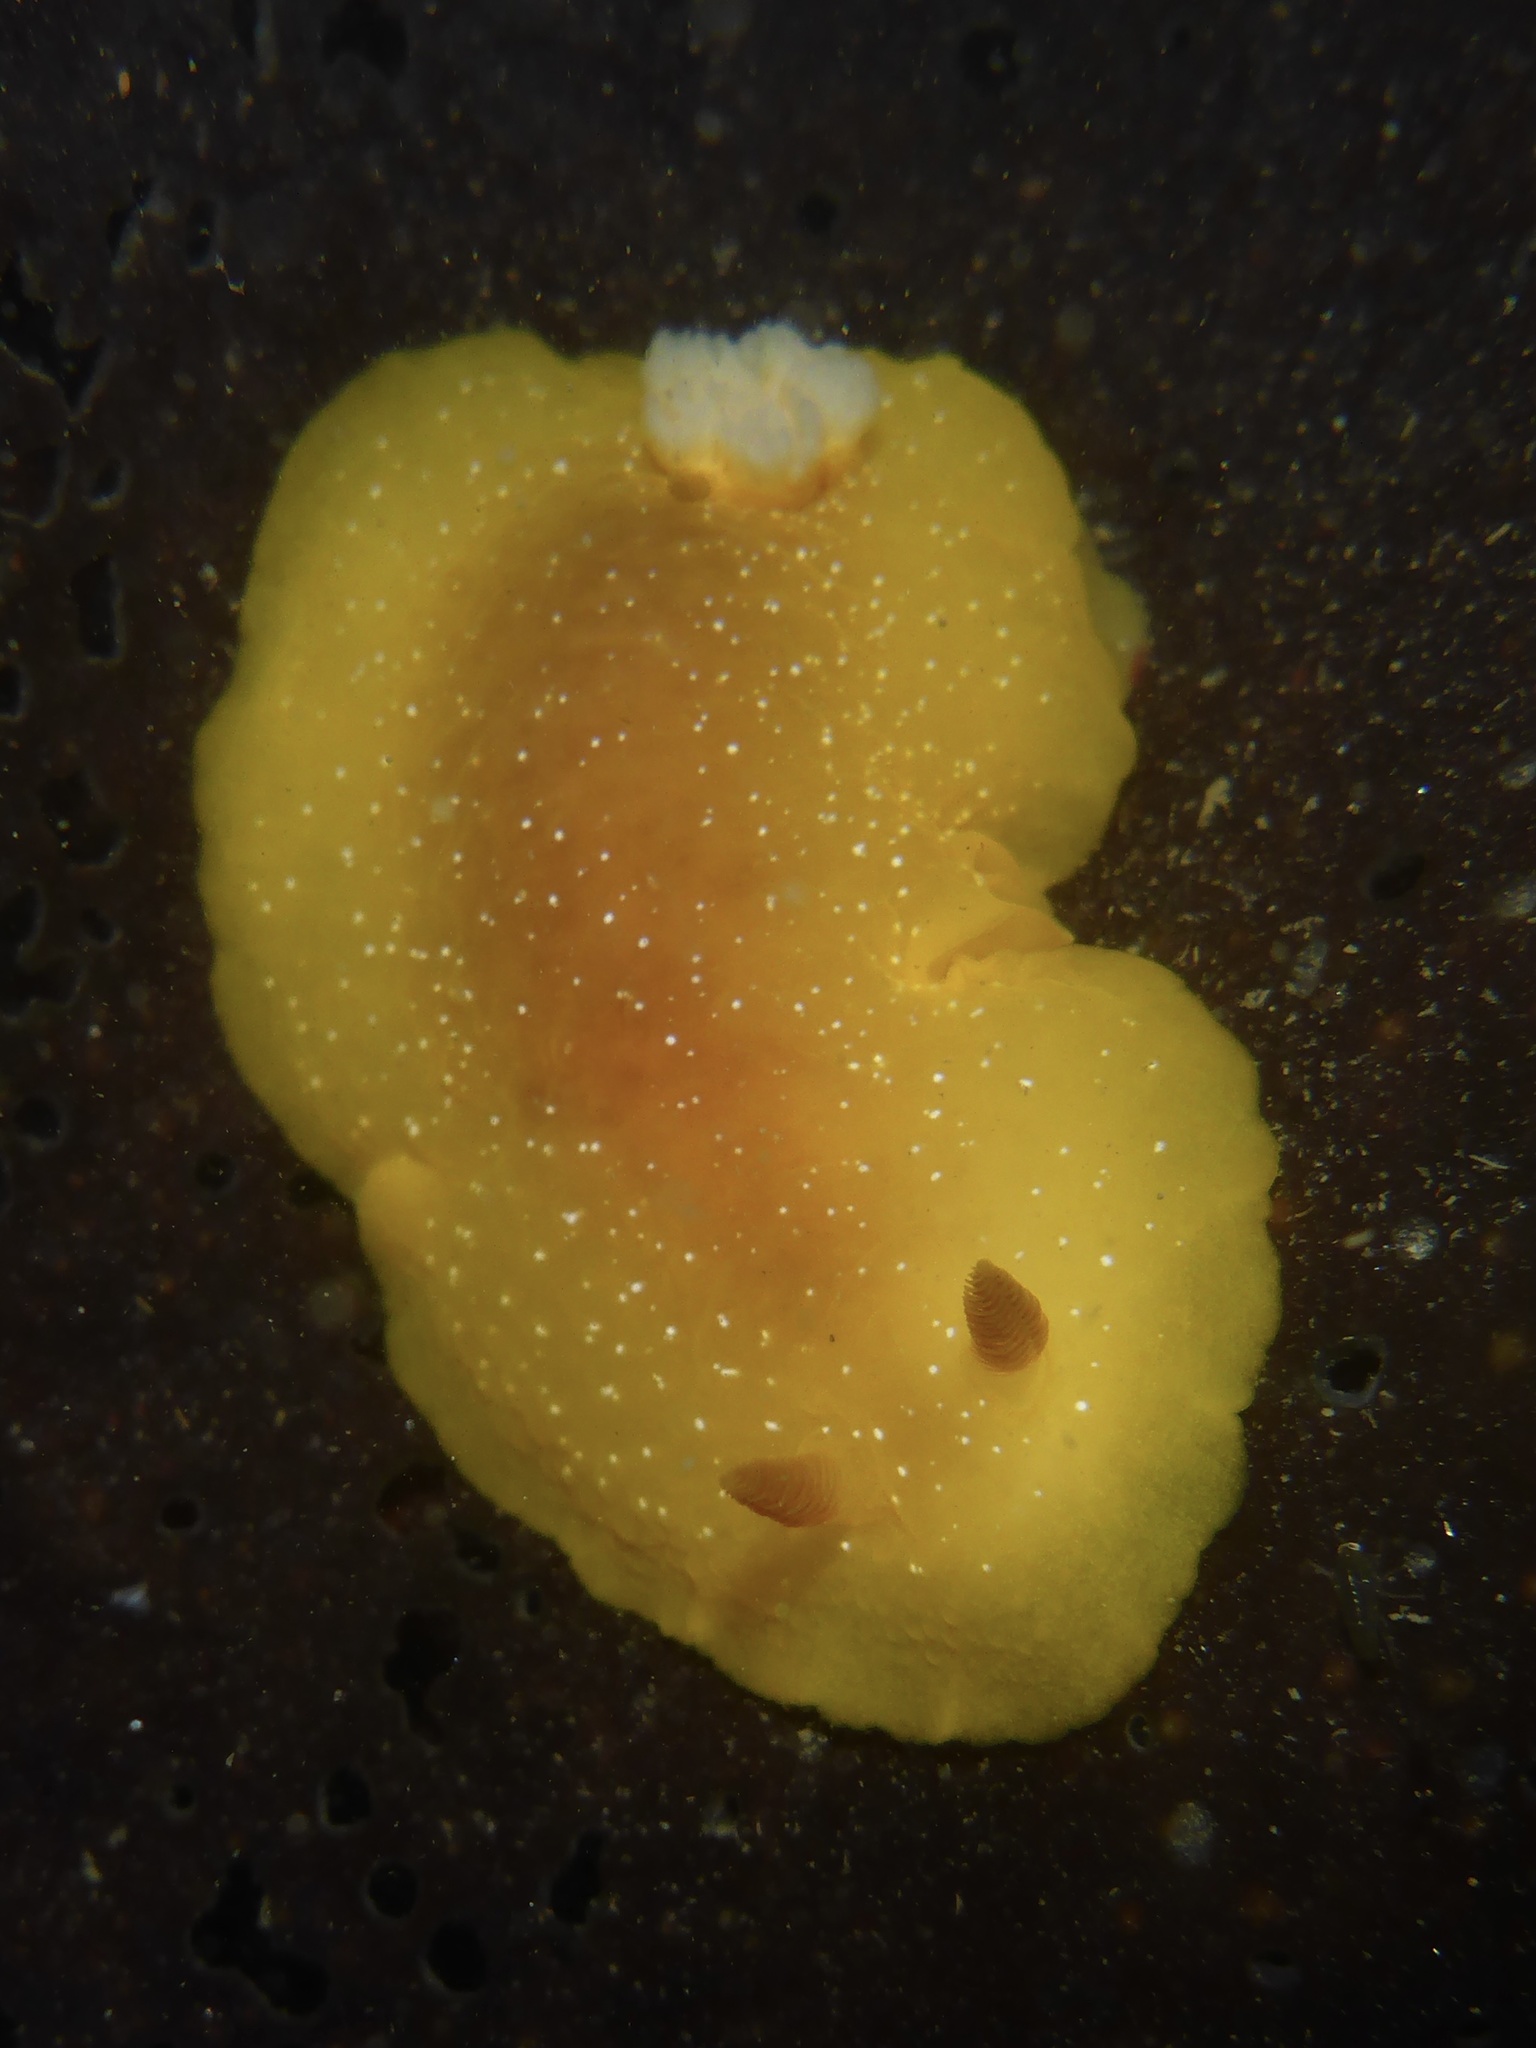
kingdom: Animalia
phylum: Mollusca
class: Gastropoda
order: Nudibranchia
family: Dendrodorididae
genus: Doriopsilla
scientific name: Doriopsilla fulva
